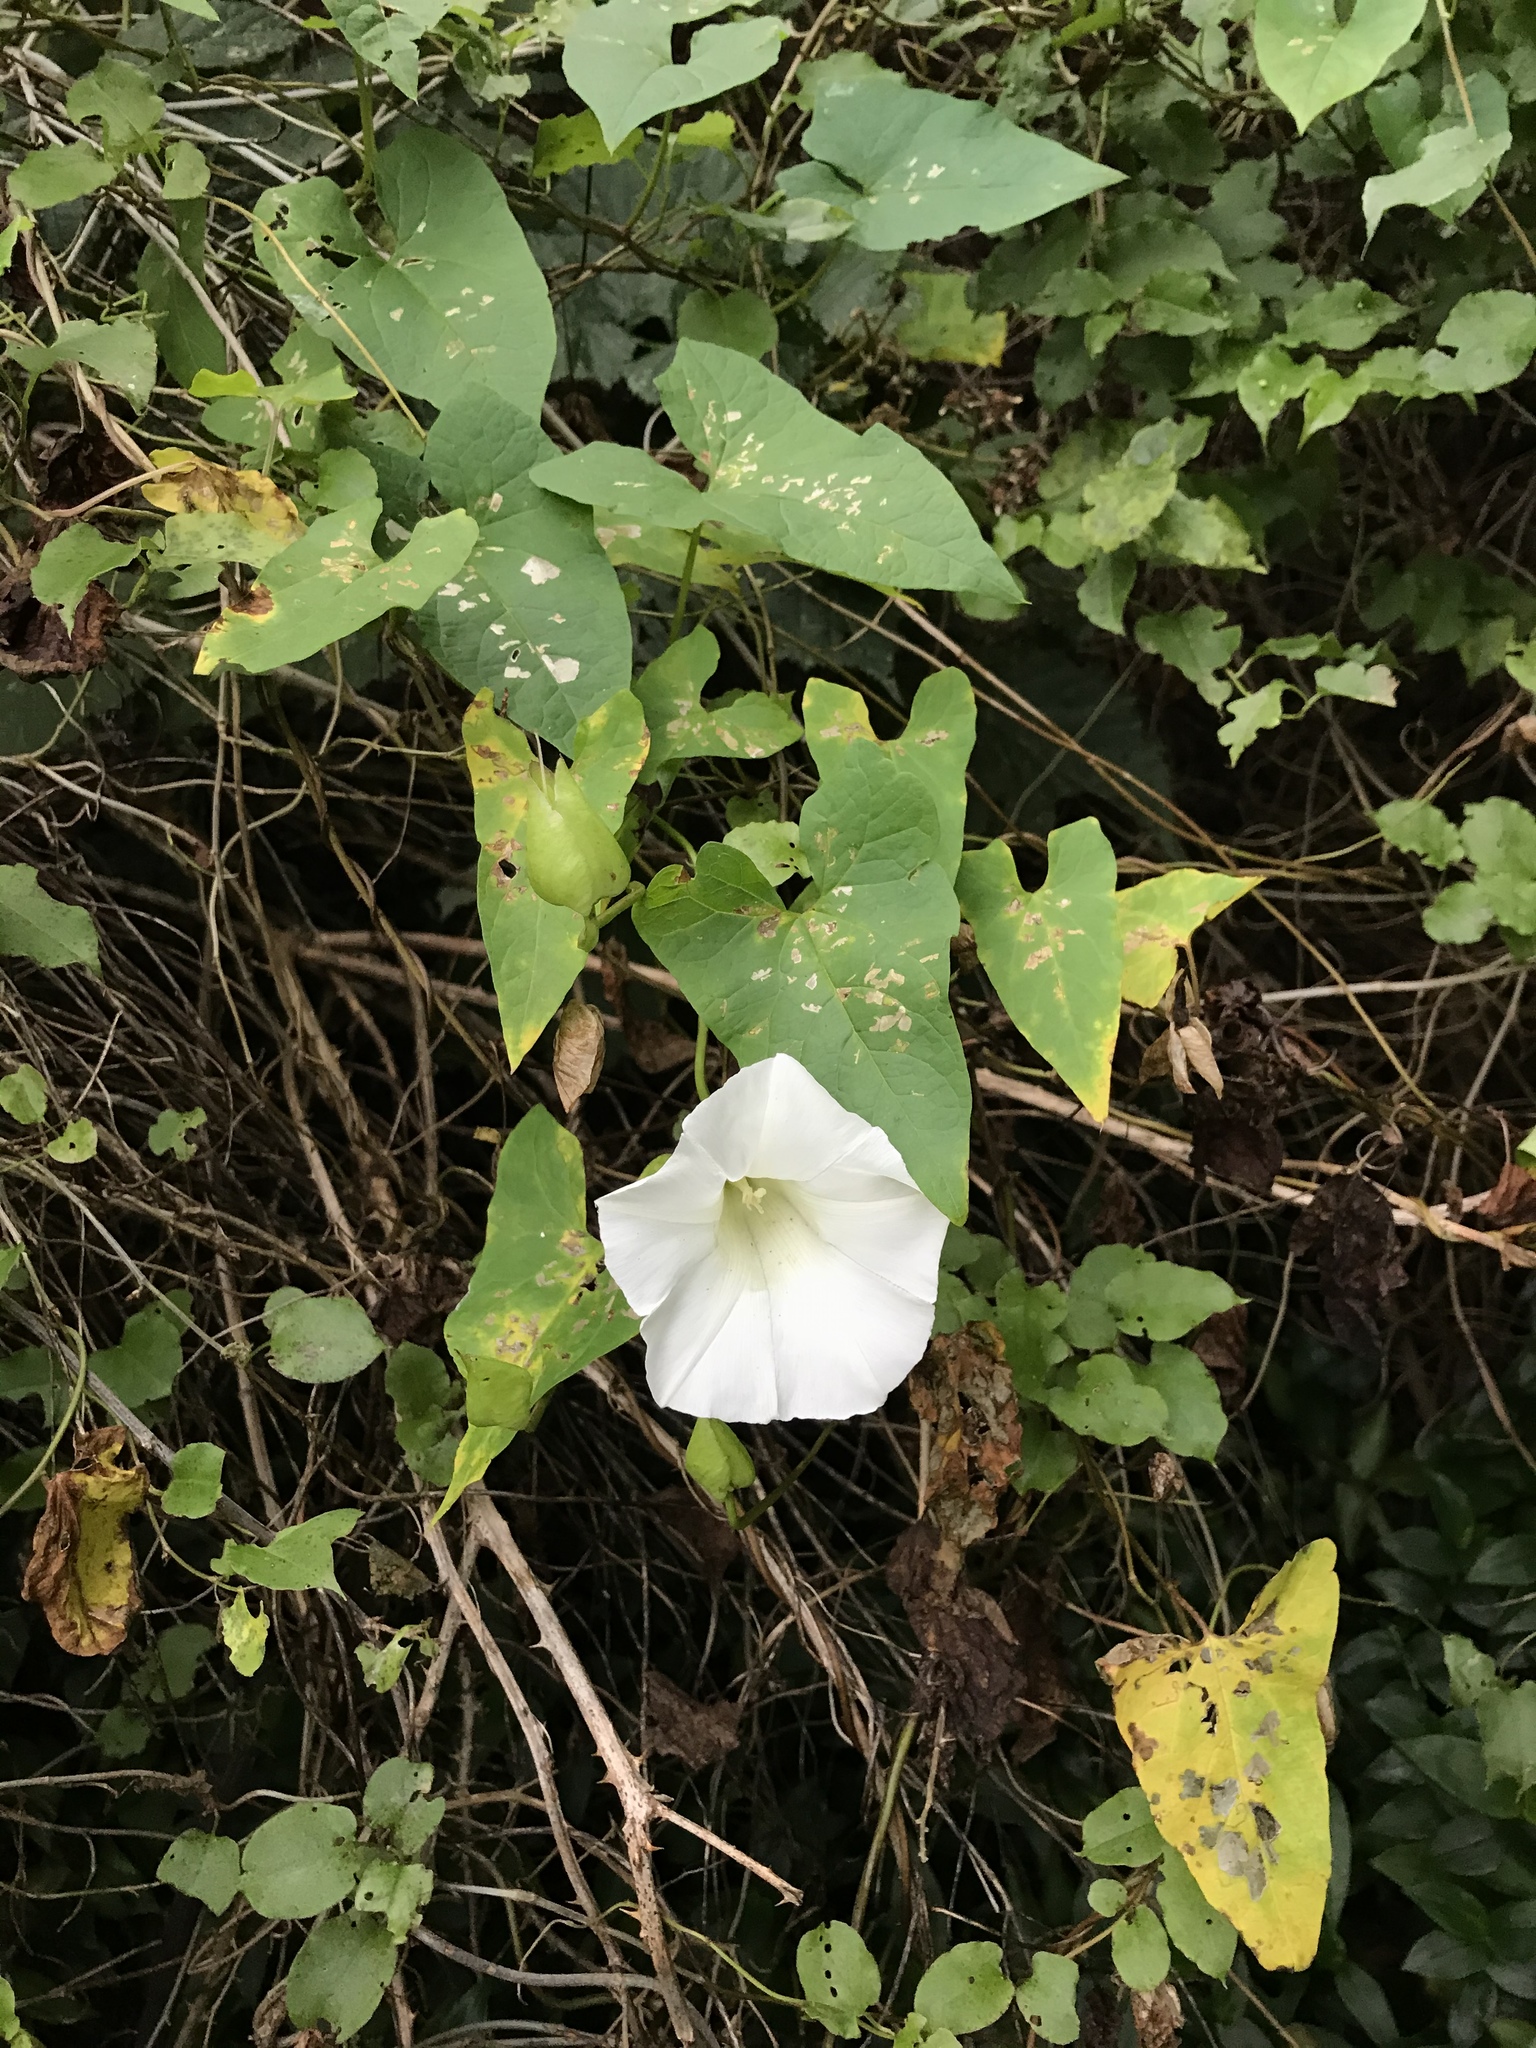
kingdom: Plantae
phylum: Tracheophyta
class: Magnoliopsida
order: Solanales
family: Convolvulaceae
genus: Calystegia
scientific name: Calystegia silvatica
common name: Large bindweed
